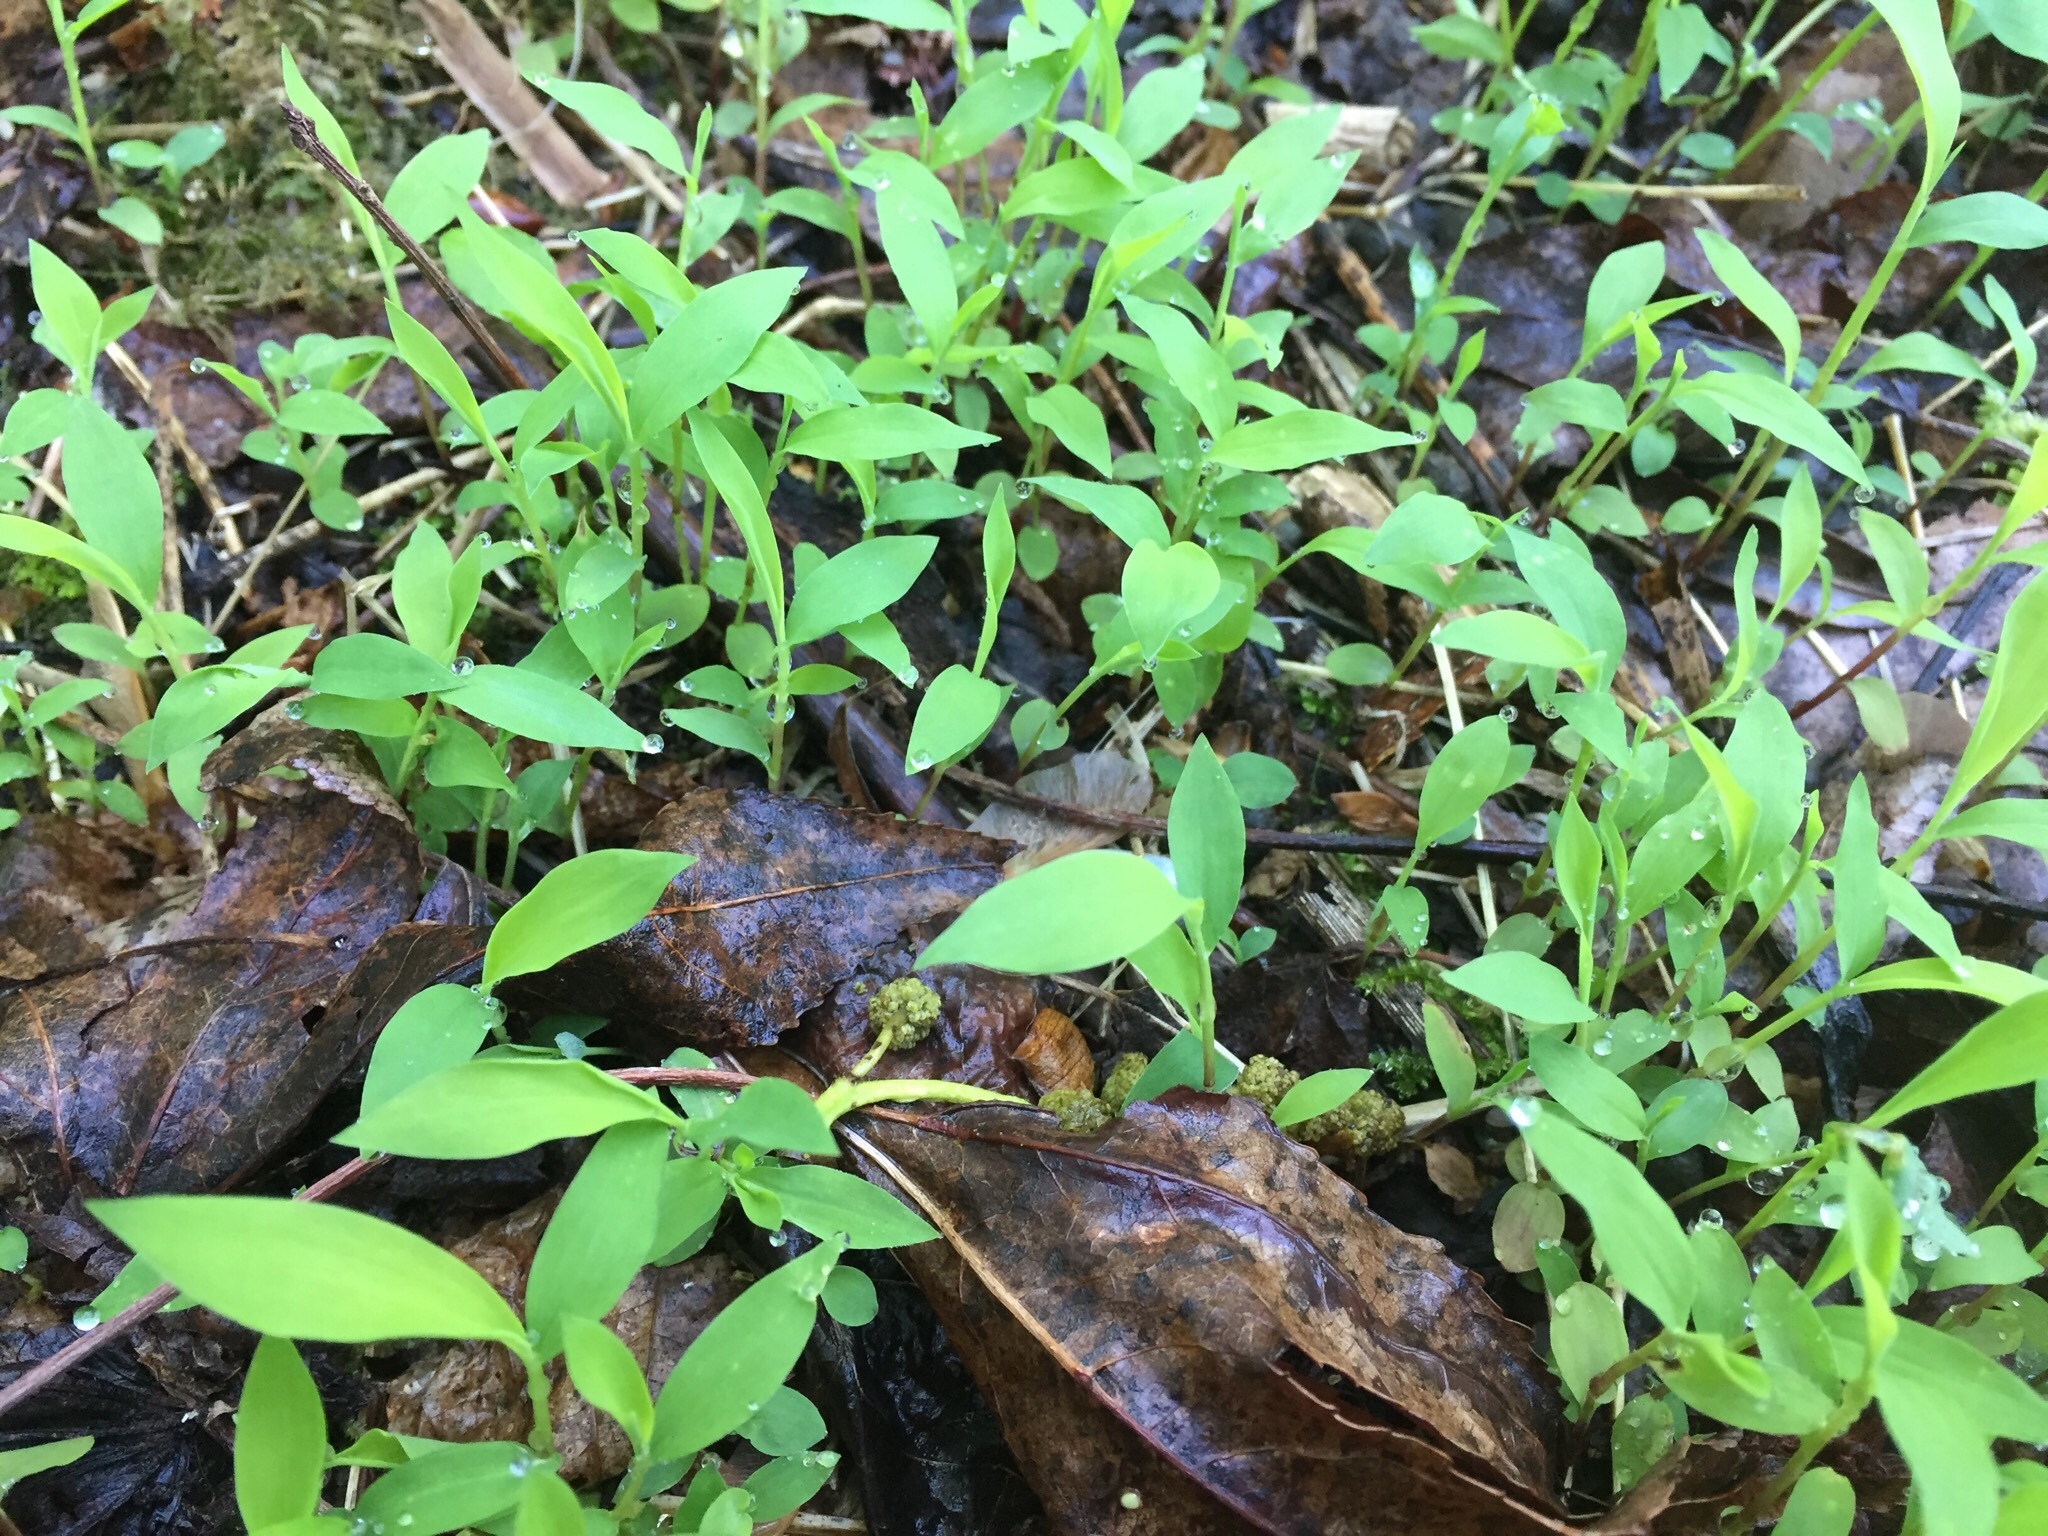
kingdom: Plantae
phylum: Tracheophyta
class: Liliopsida
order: Poales
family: Poaceae
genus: Microstegium
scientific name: Microstegium vimineum
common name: Japanese stiltgrass
